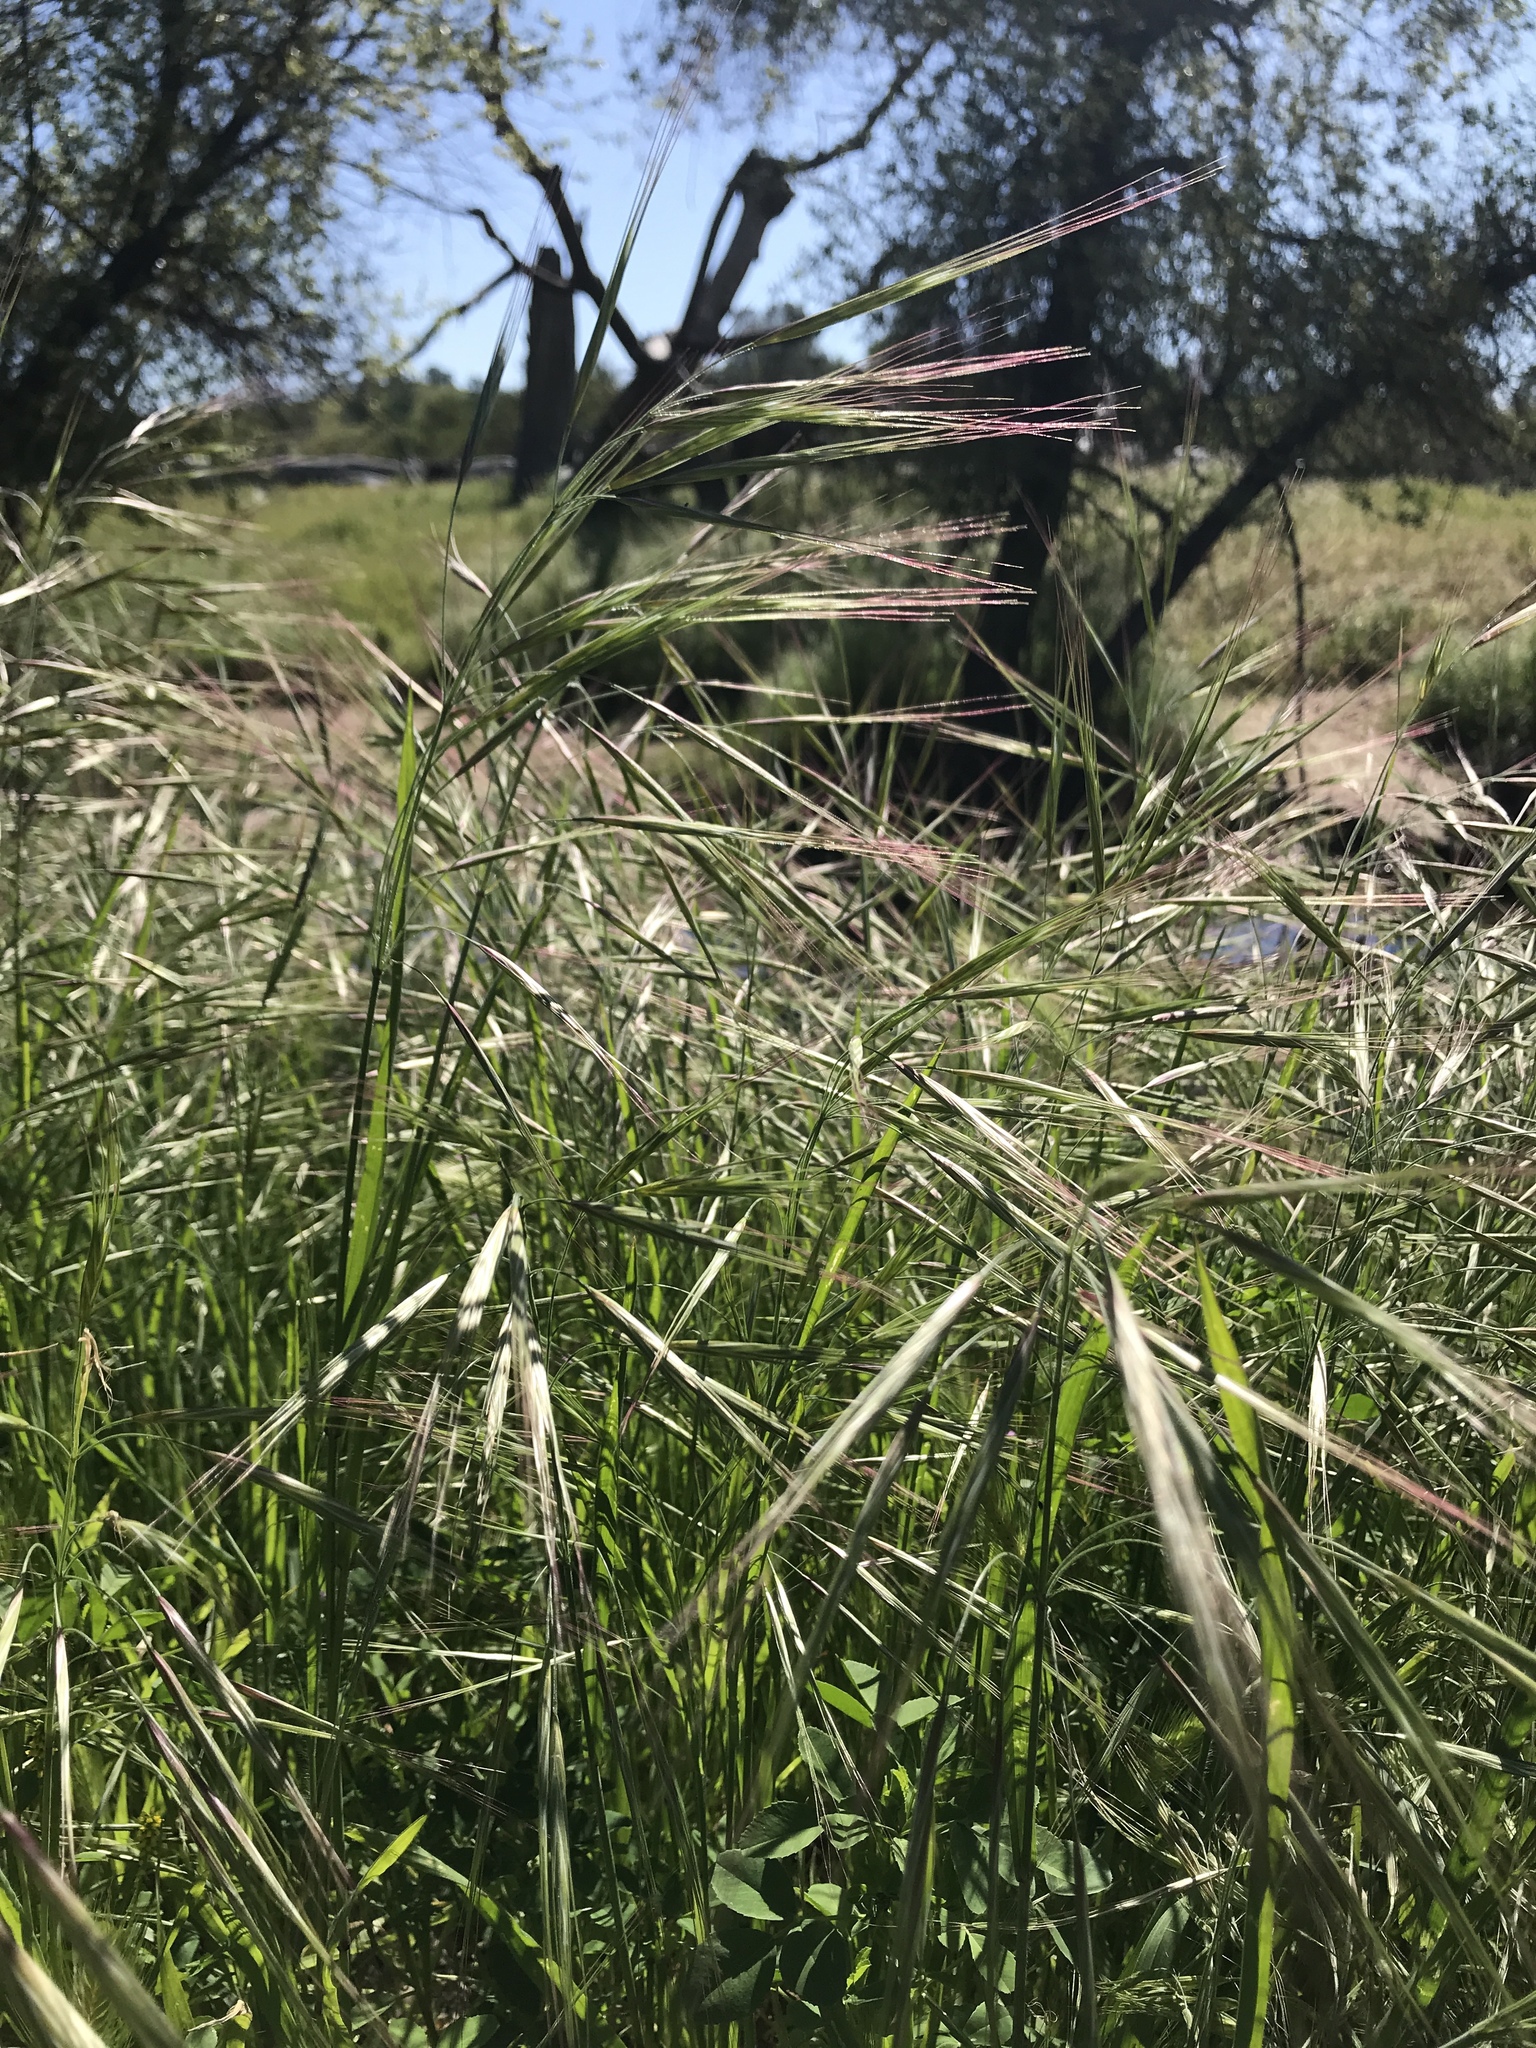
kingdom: Plantae
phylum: Tracheophyta
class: Liliopsida
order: Poales
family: Poaceae
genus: Bromus
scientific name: Bromus diandrus
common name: Ripgut brome
